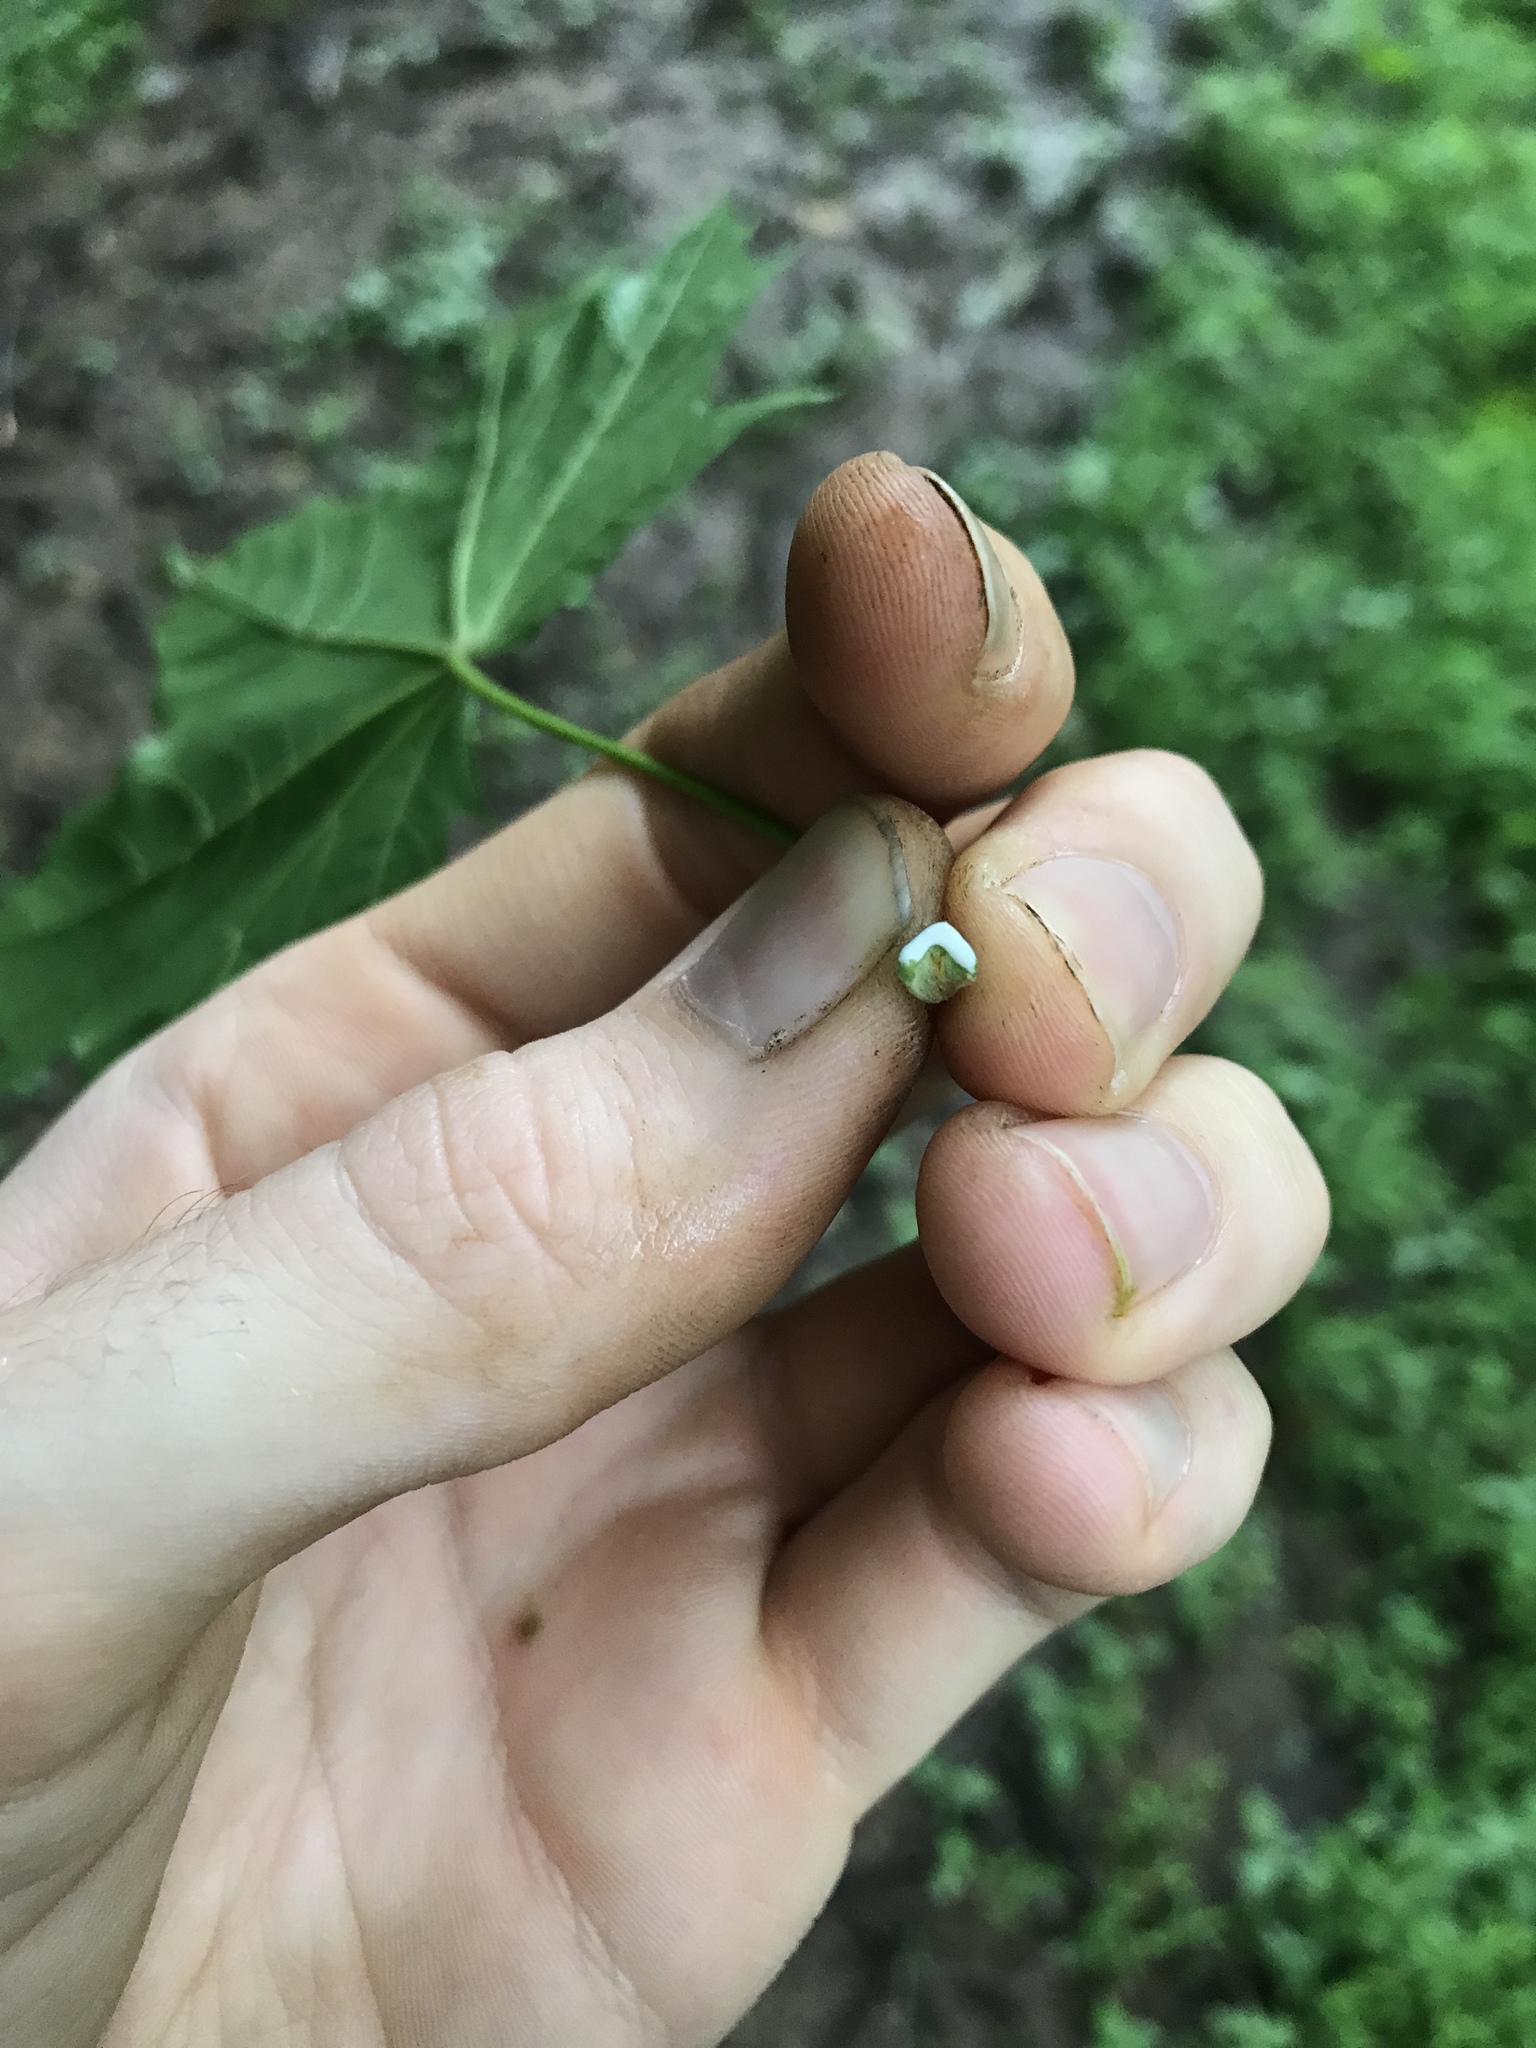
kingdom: Plantae
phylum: Tracheophyta
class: Magnoliopsida
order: Sapindales
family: Sapindaceae
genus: Acer
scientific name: Acer platanoides
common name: Norway maple
